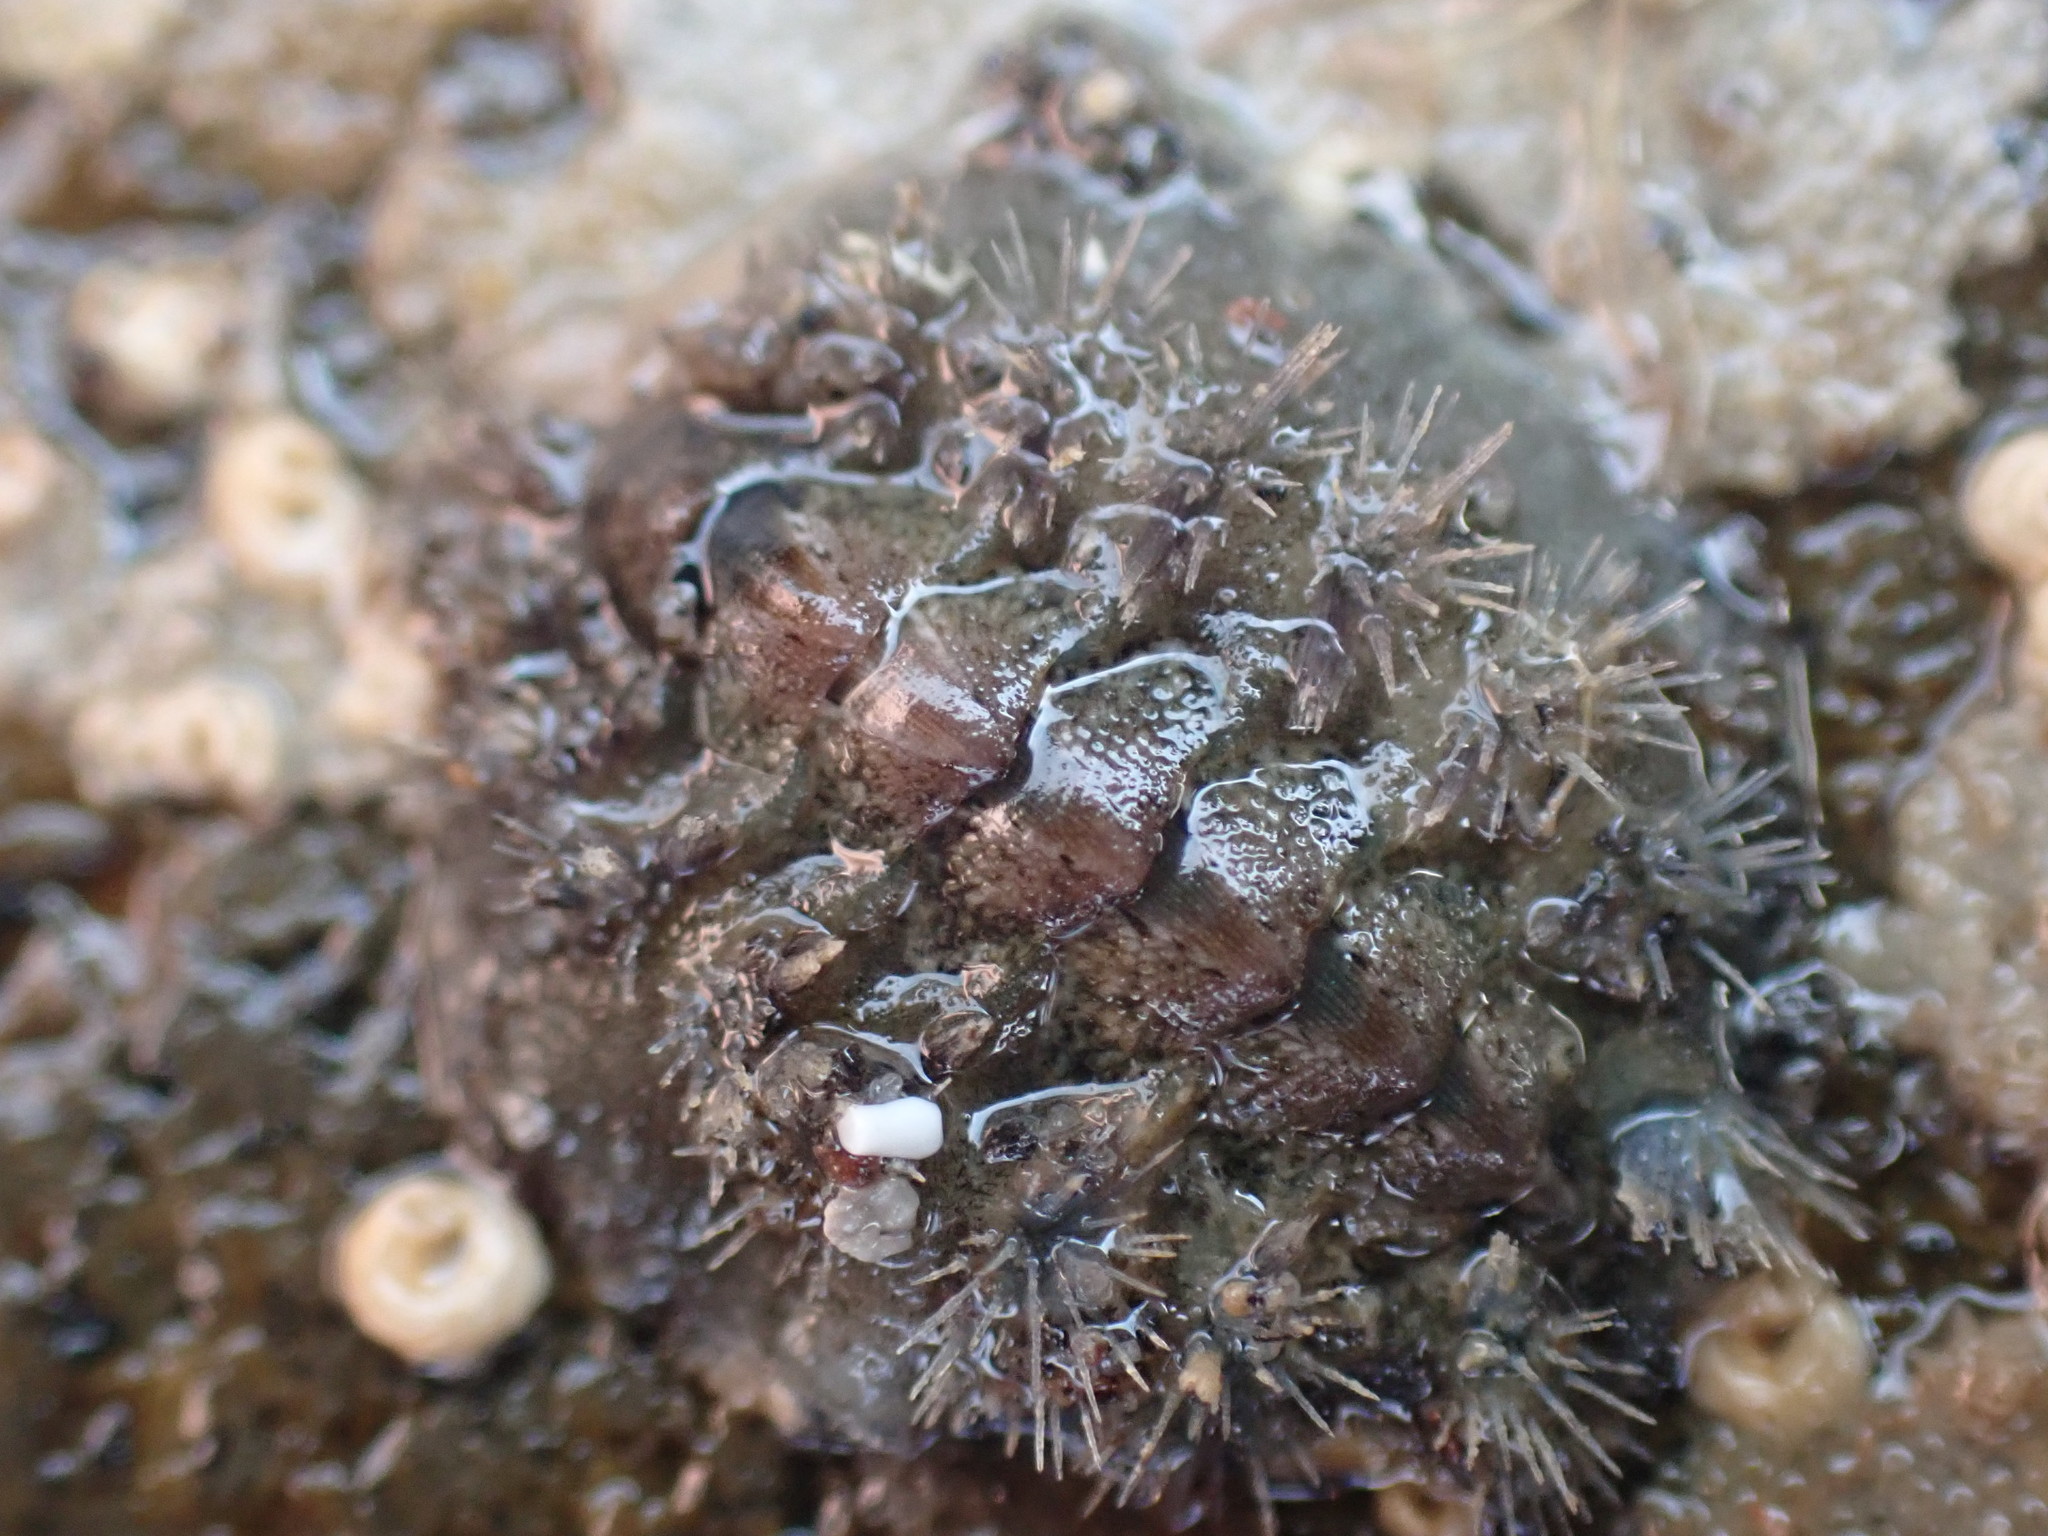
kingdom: Animalia
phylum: Mollusca
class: Polyplacophora
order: Chitonida
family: Acanthochitonidae
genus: Acanthochitona
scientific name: Acanthochitona zelandica
